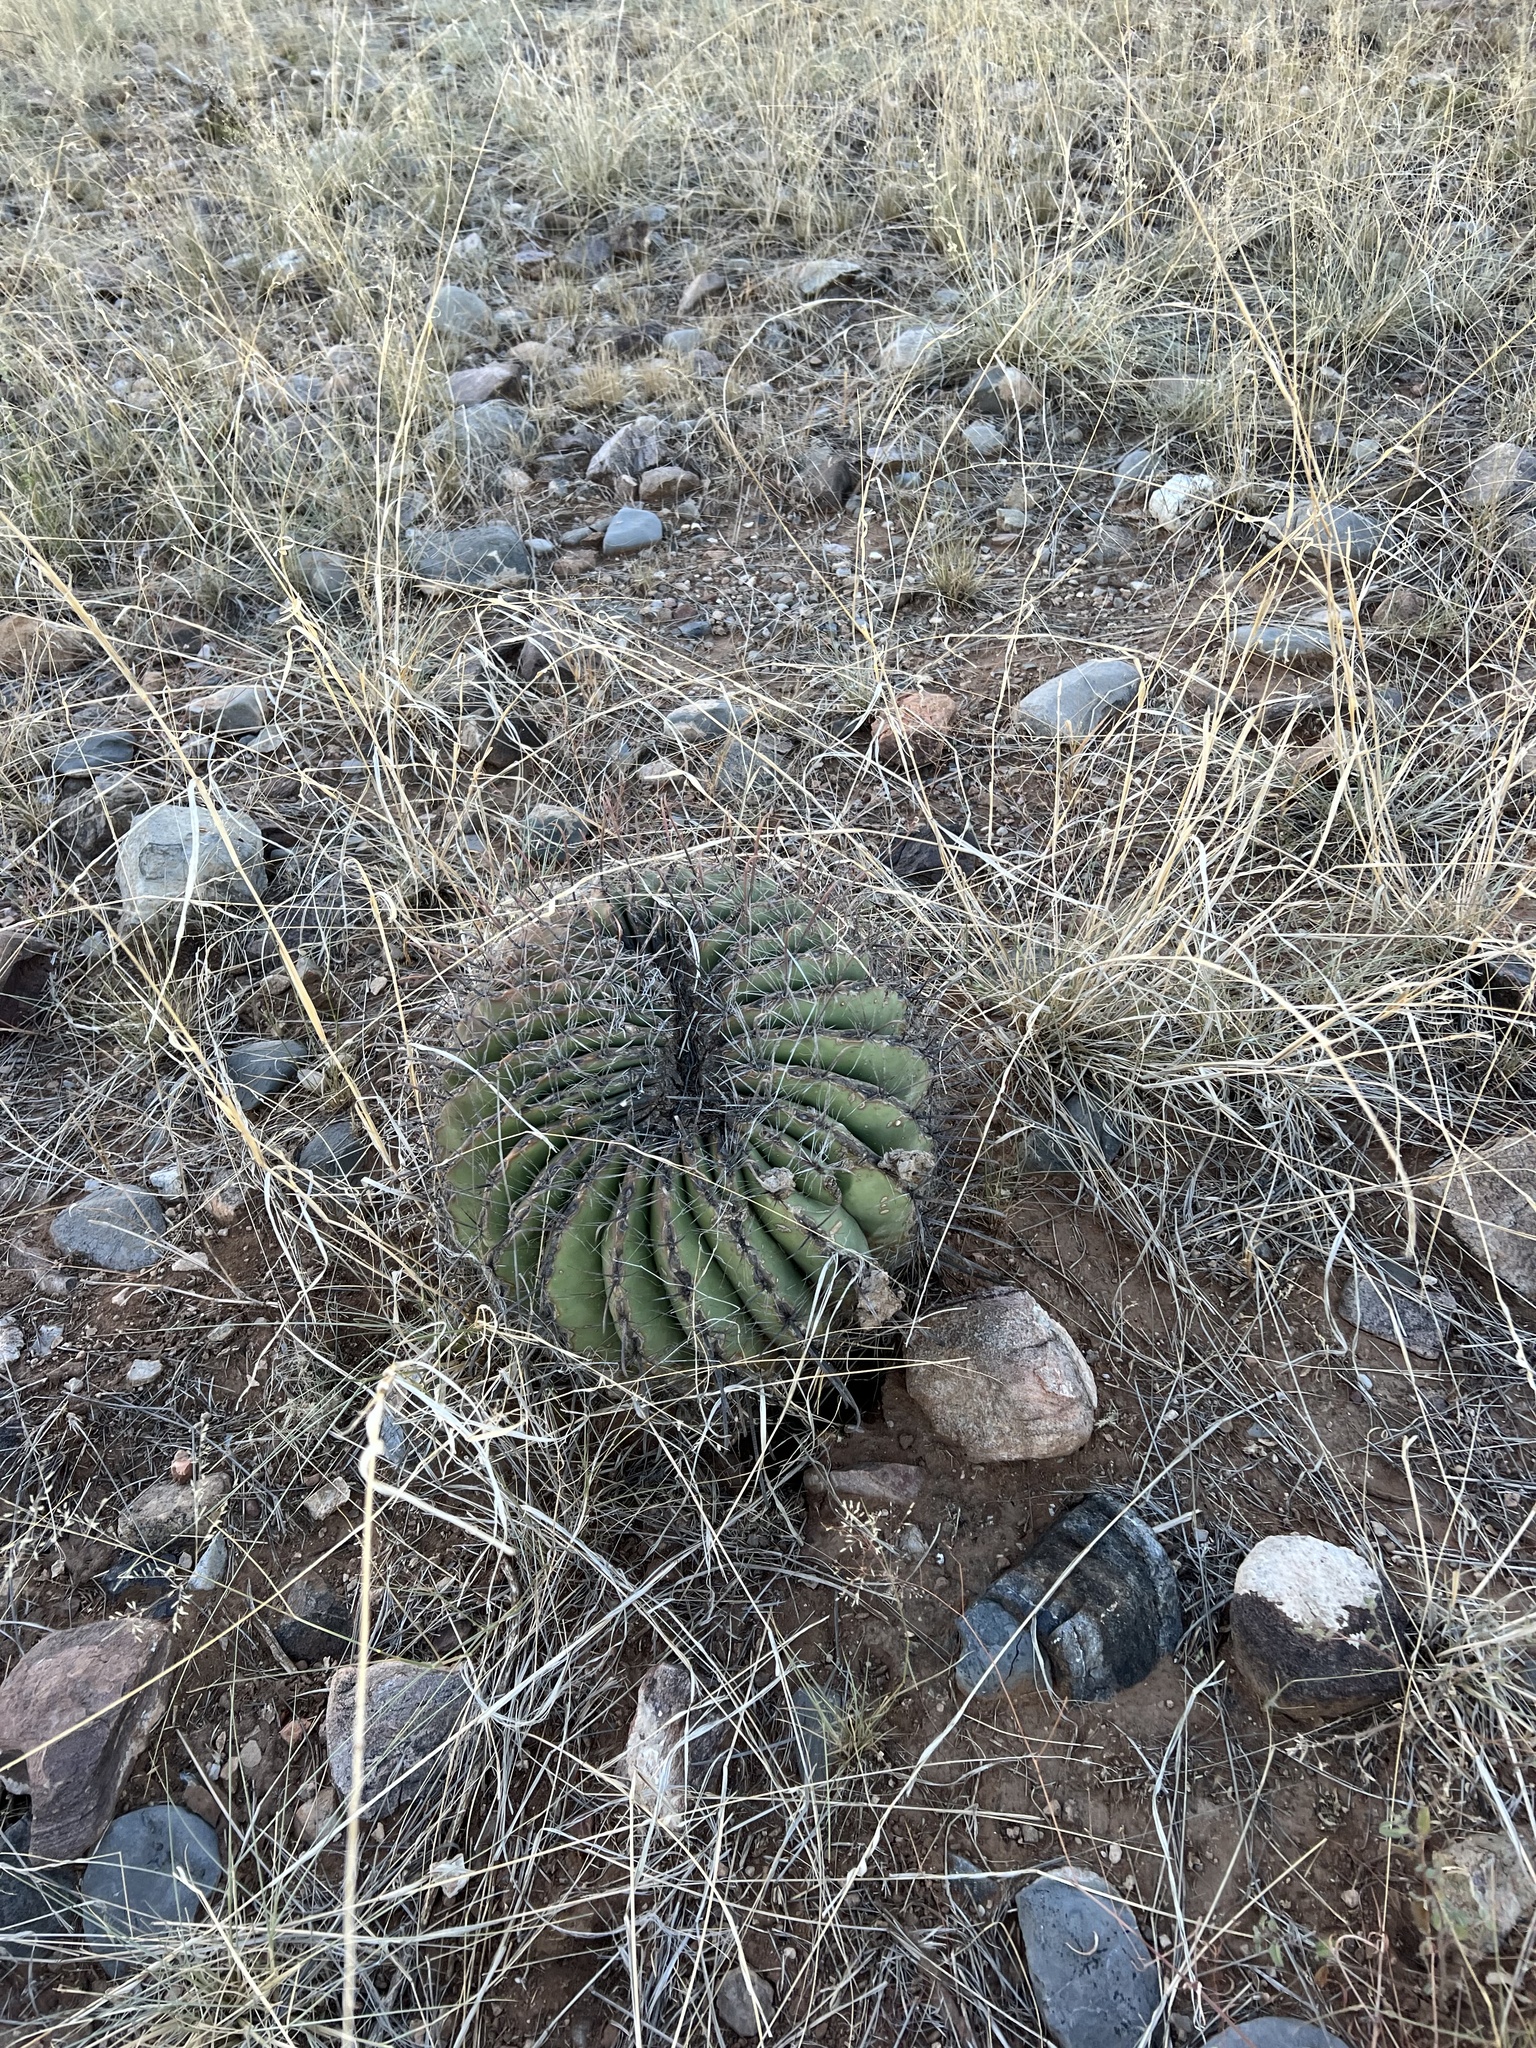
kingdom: Plantae
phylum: Tracheophyta
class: Magnoliopsida
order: Caryophyllales
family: Cactaceae
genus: Ferocactus
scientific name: Ferocactus wislizeni
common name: Candy barrel cactus
